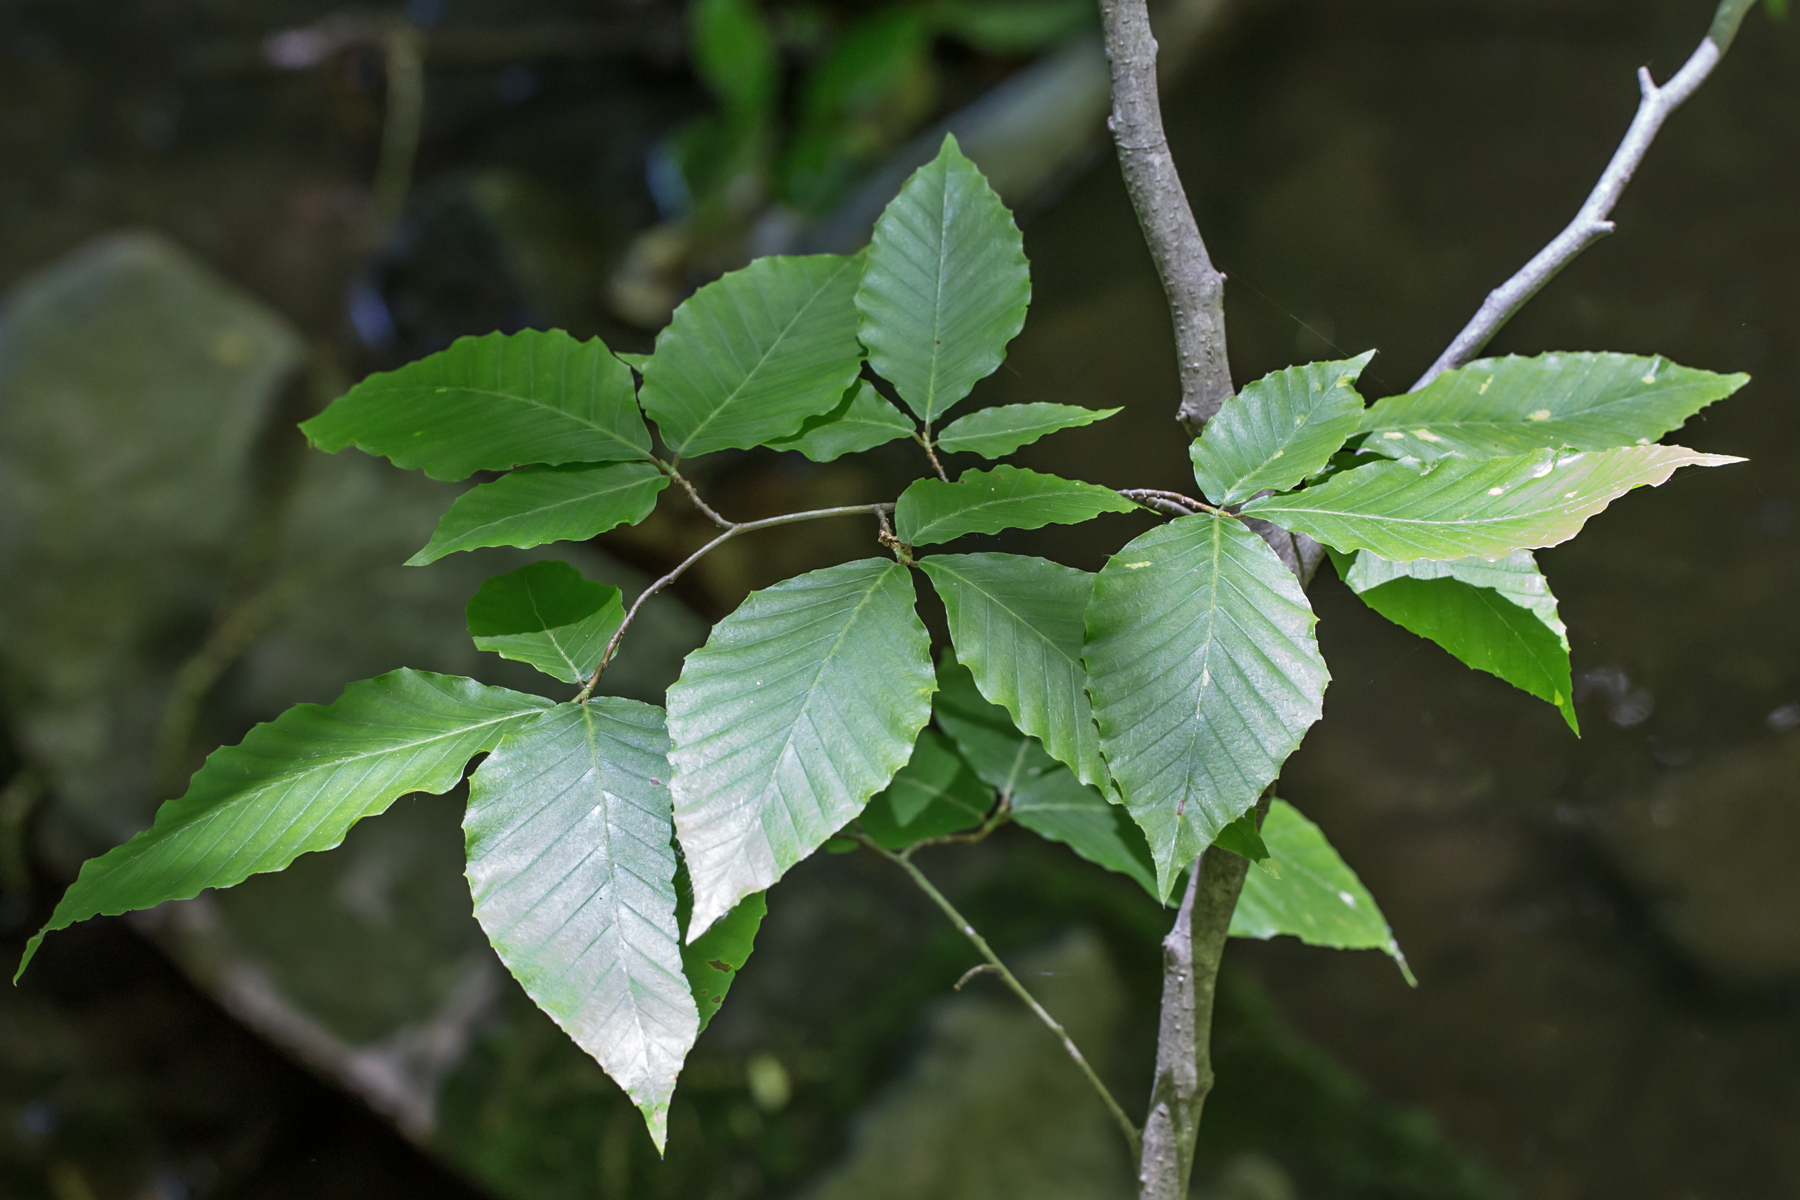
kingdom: Plantae
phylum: Tracheophyta
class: Magnoliopsida
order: Fagales
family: Fagaceae
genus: Fagus
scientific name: Fagus grandifolia
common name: American beech
